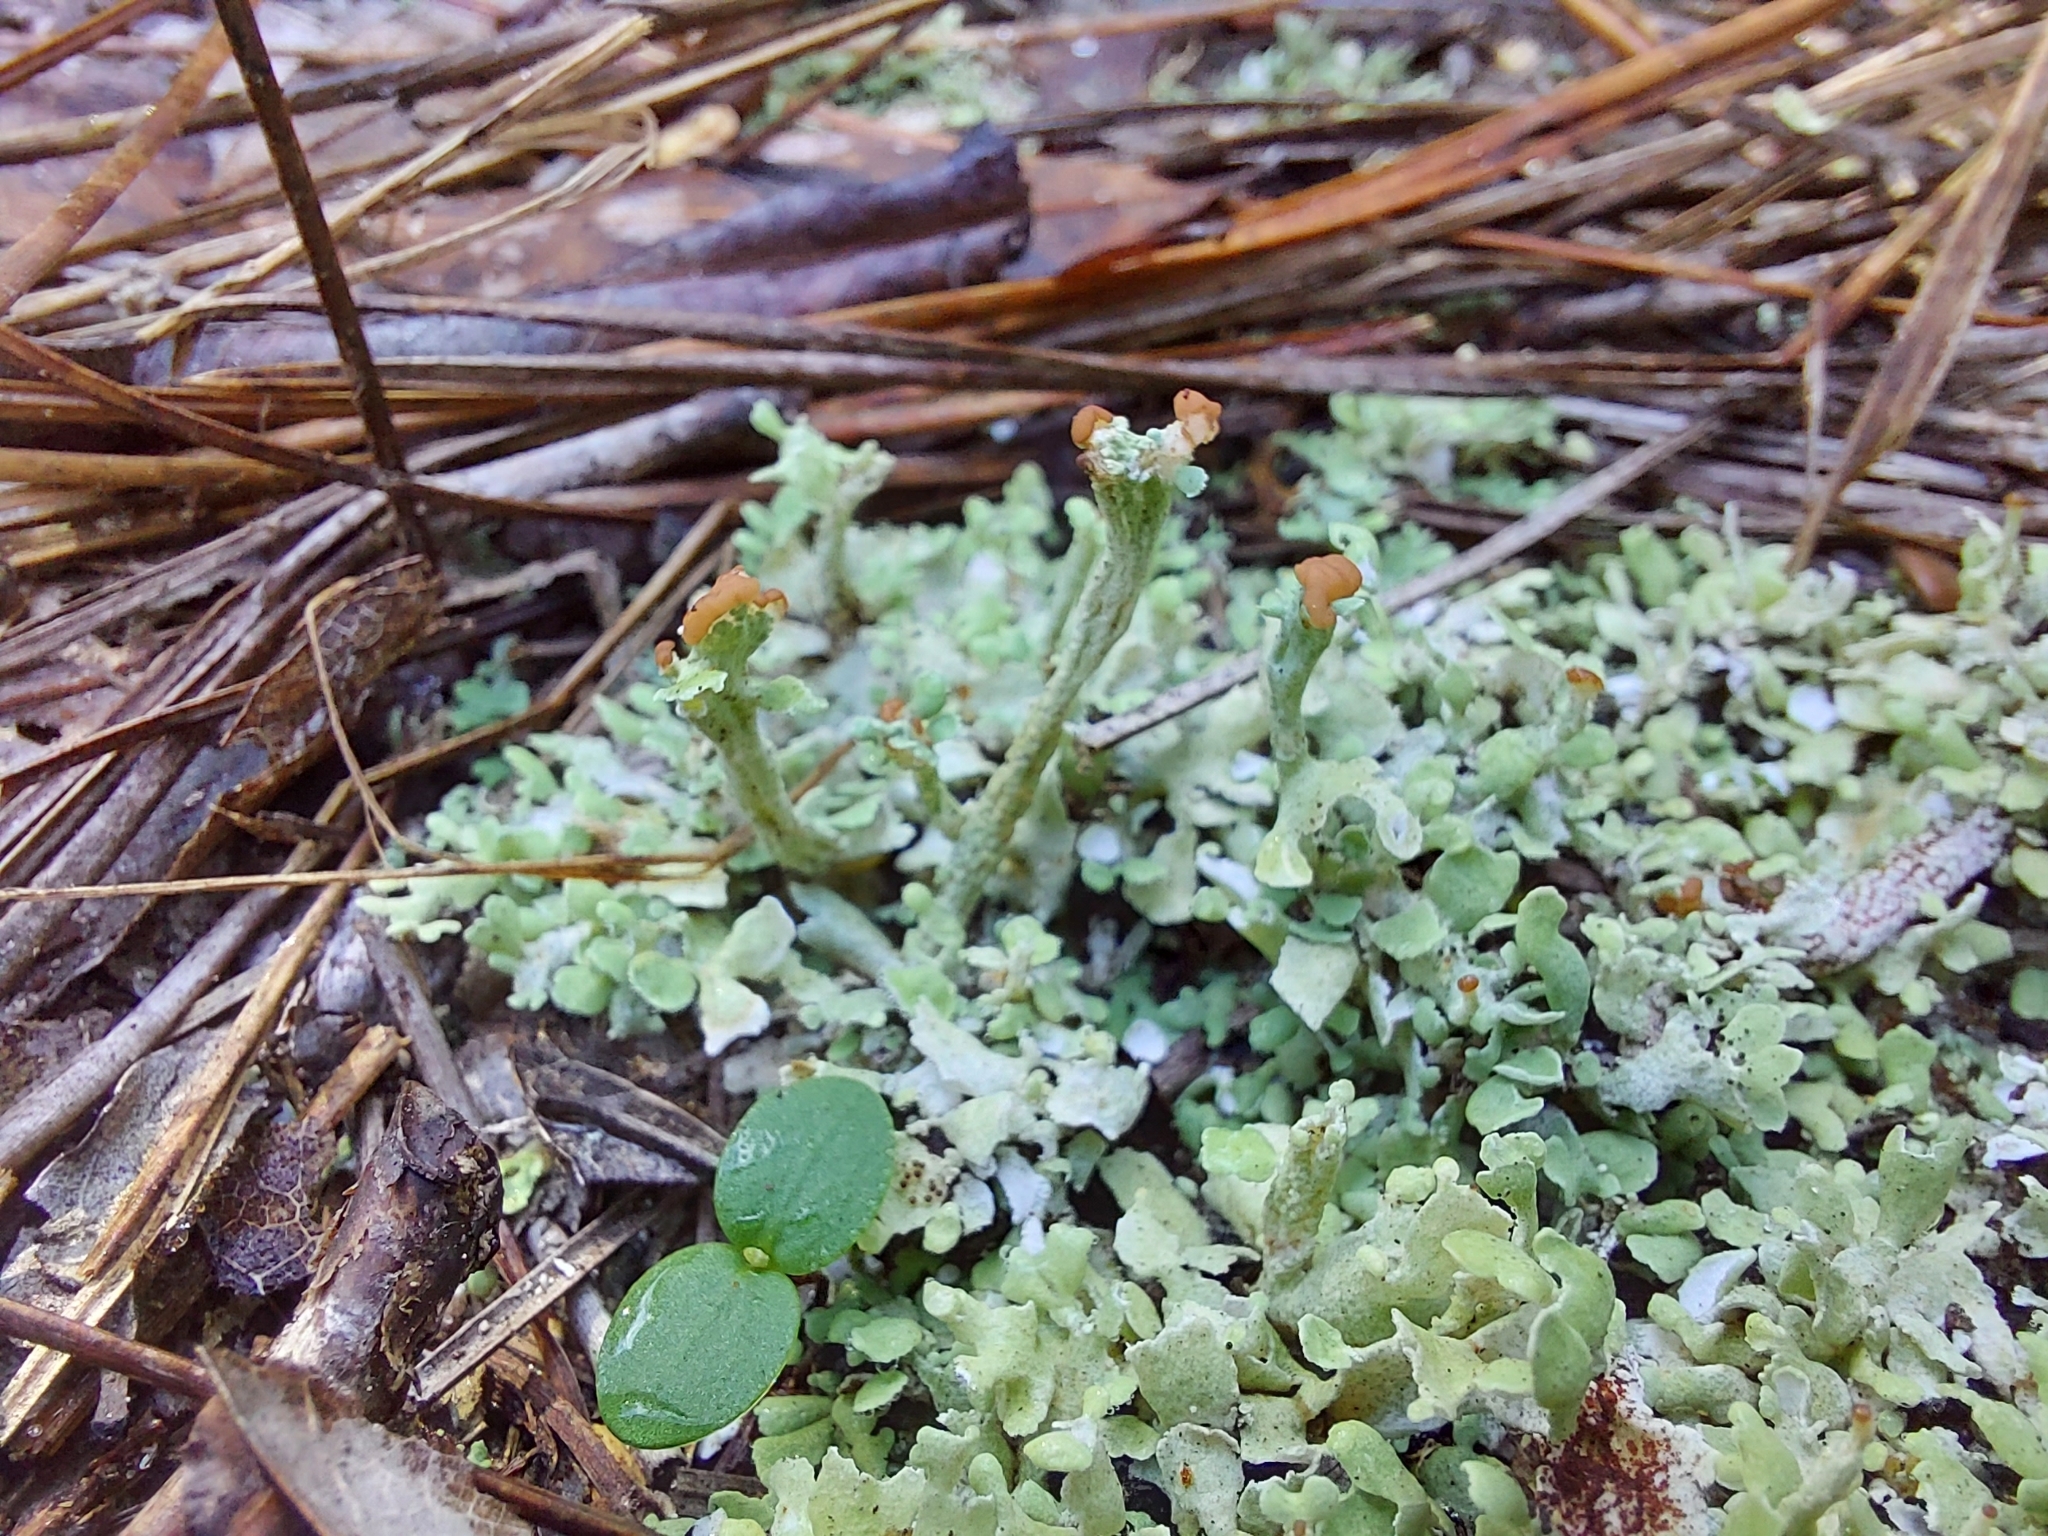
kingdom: Fungi
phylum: Ascomycota
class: Lecanoromycetes
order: Lecanorales
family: Cladoniaceae
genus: Cladonia
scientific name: Cladonia peziziformis
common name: Cup lichen
